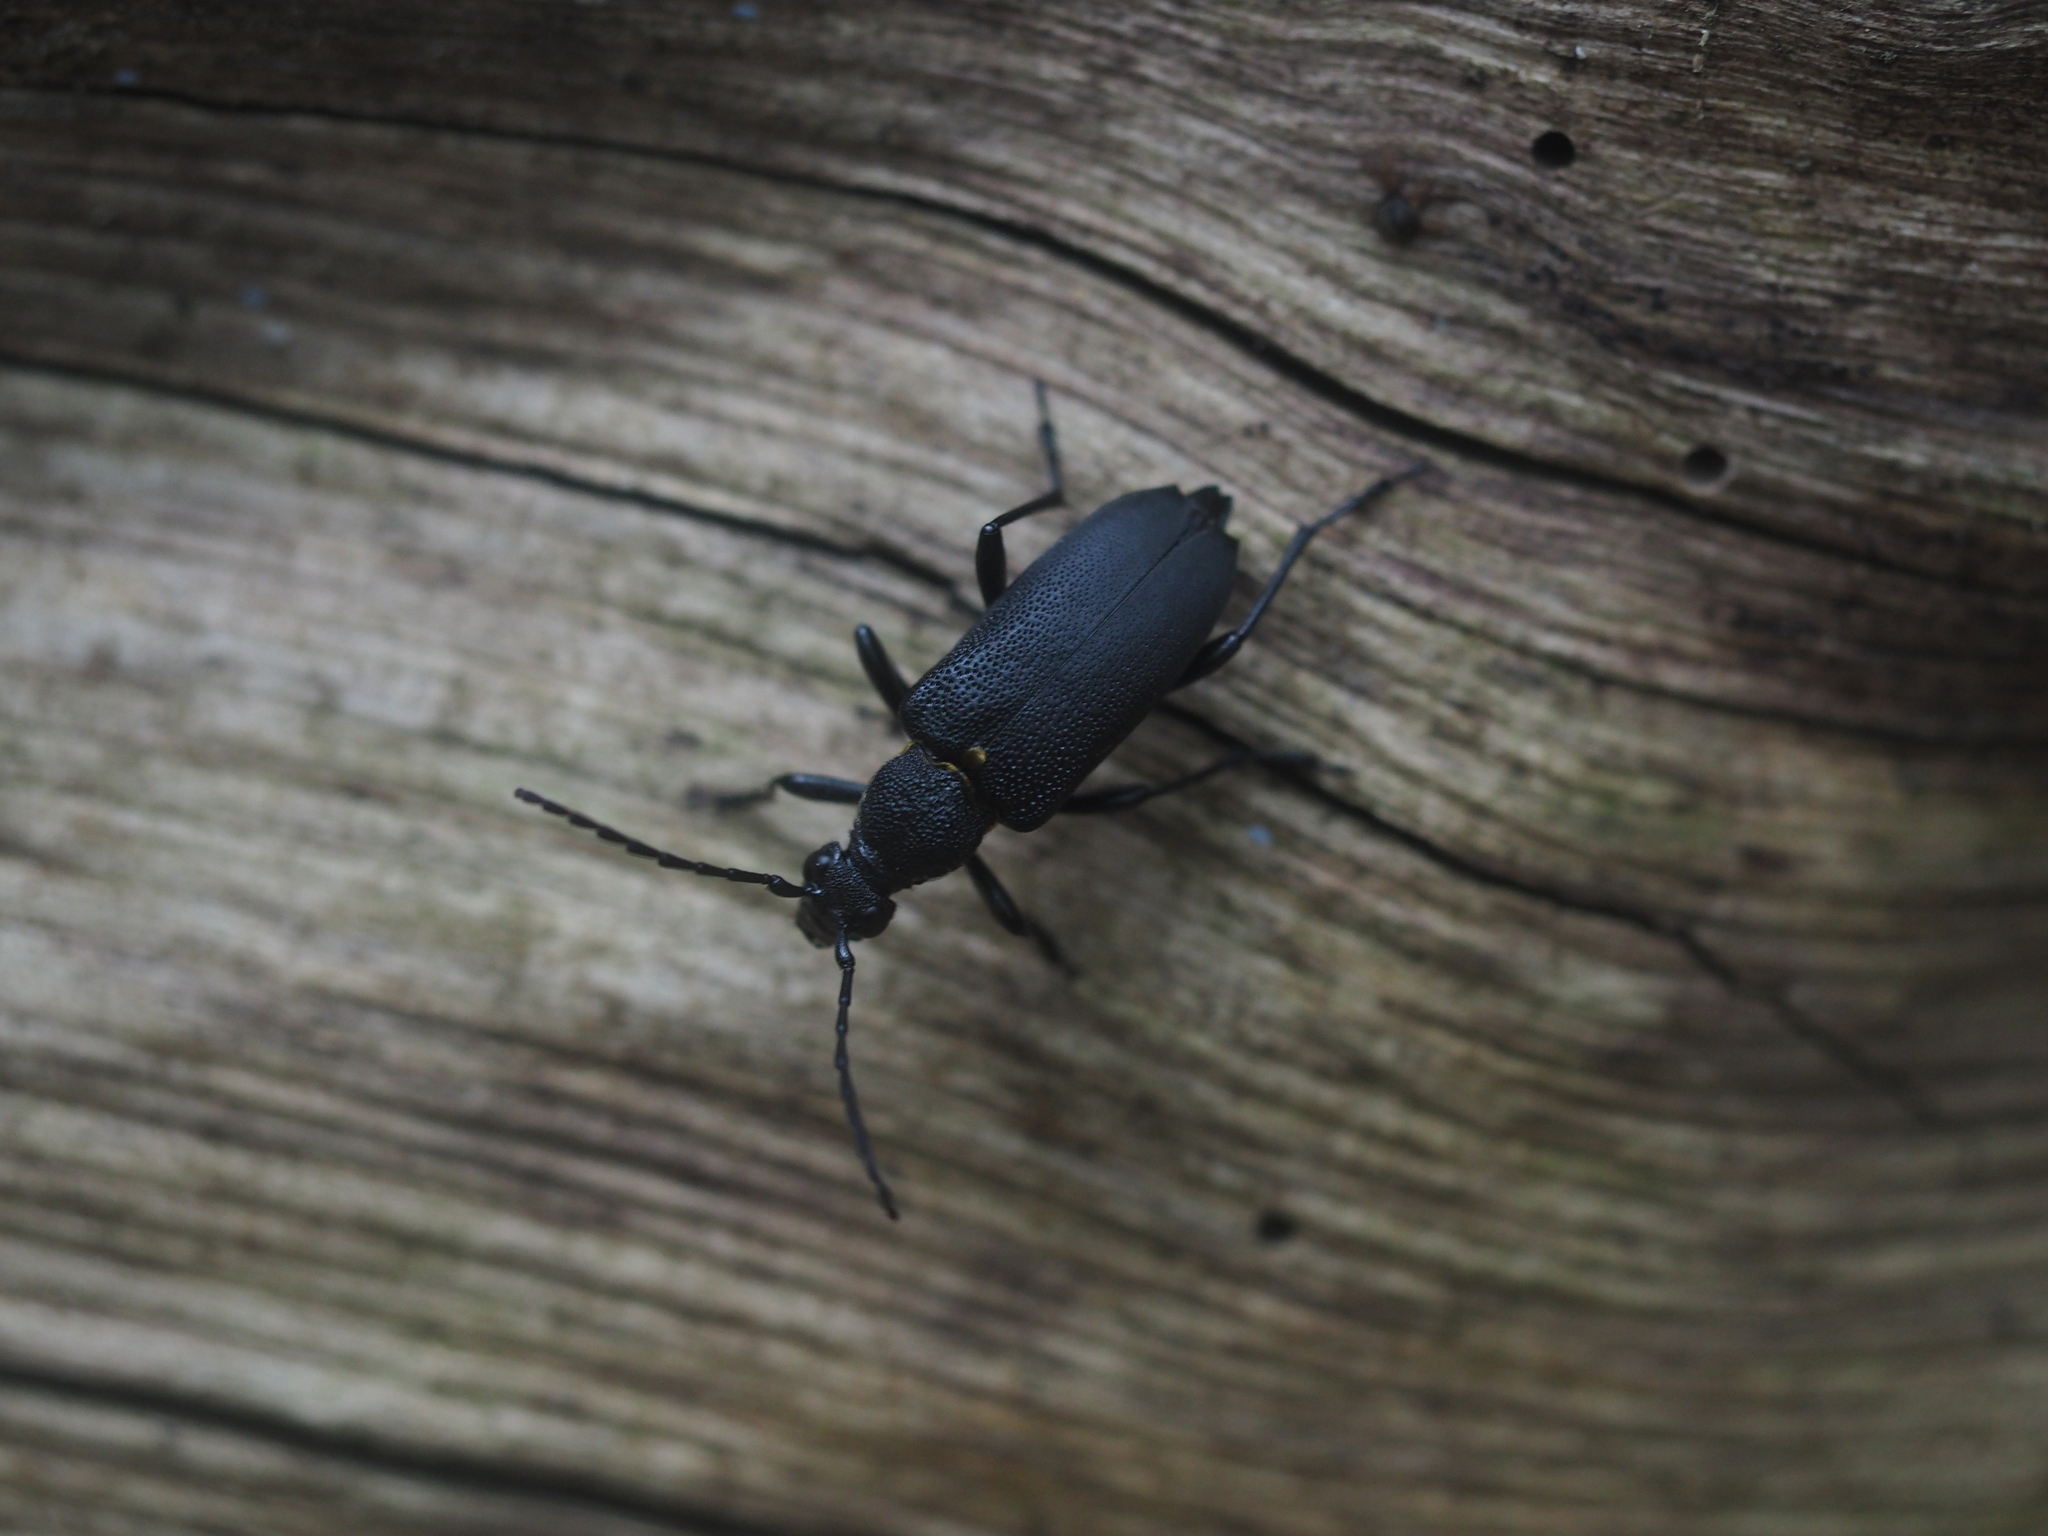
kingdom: Animalia
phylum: Arthropoda
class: Insecta
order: Coleoptera
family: Cerambycidae
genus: Stictoleptura
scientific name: Stictoleptura scutellata
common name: Large black longhorn beetle
